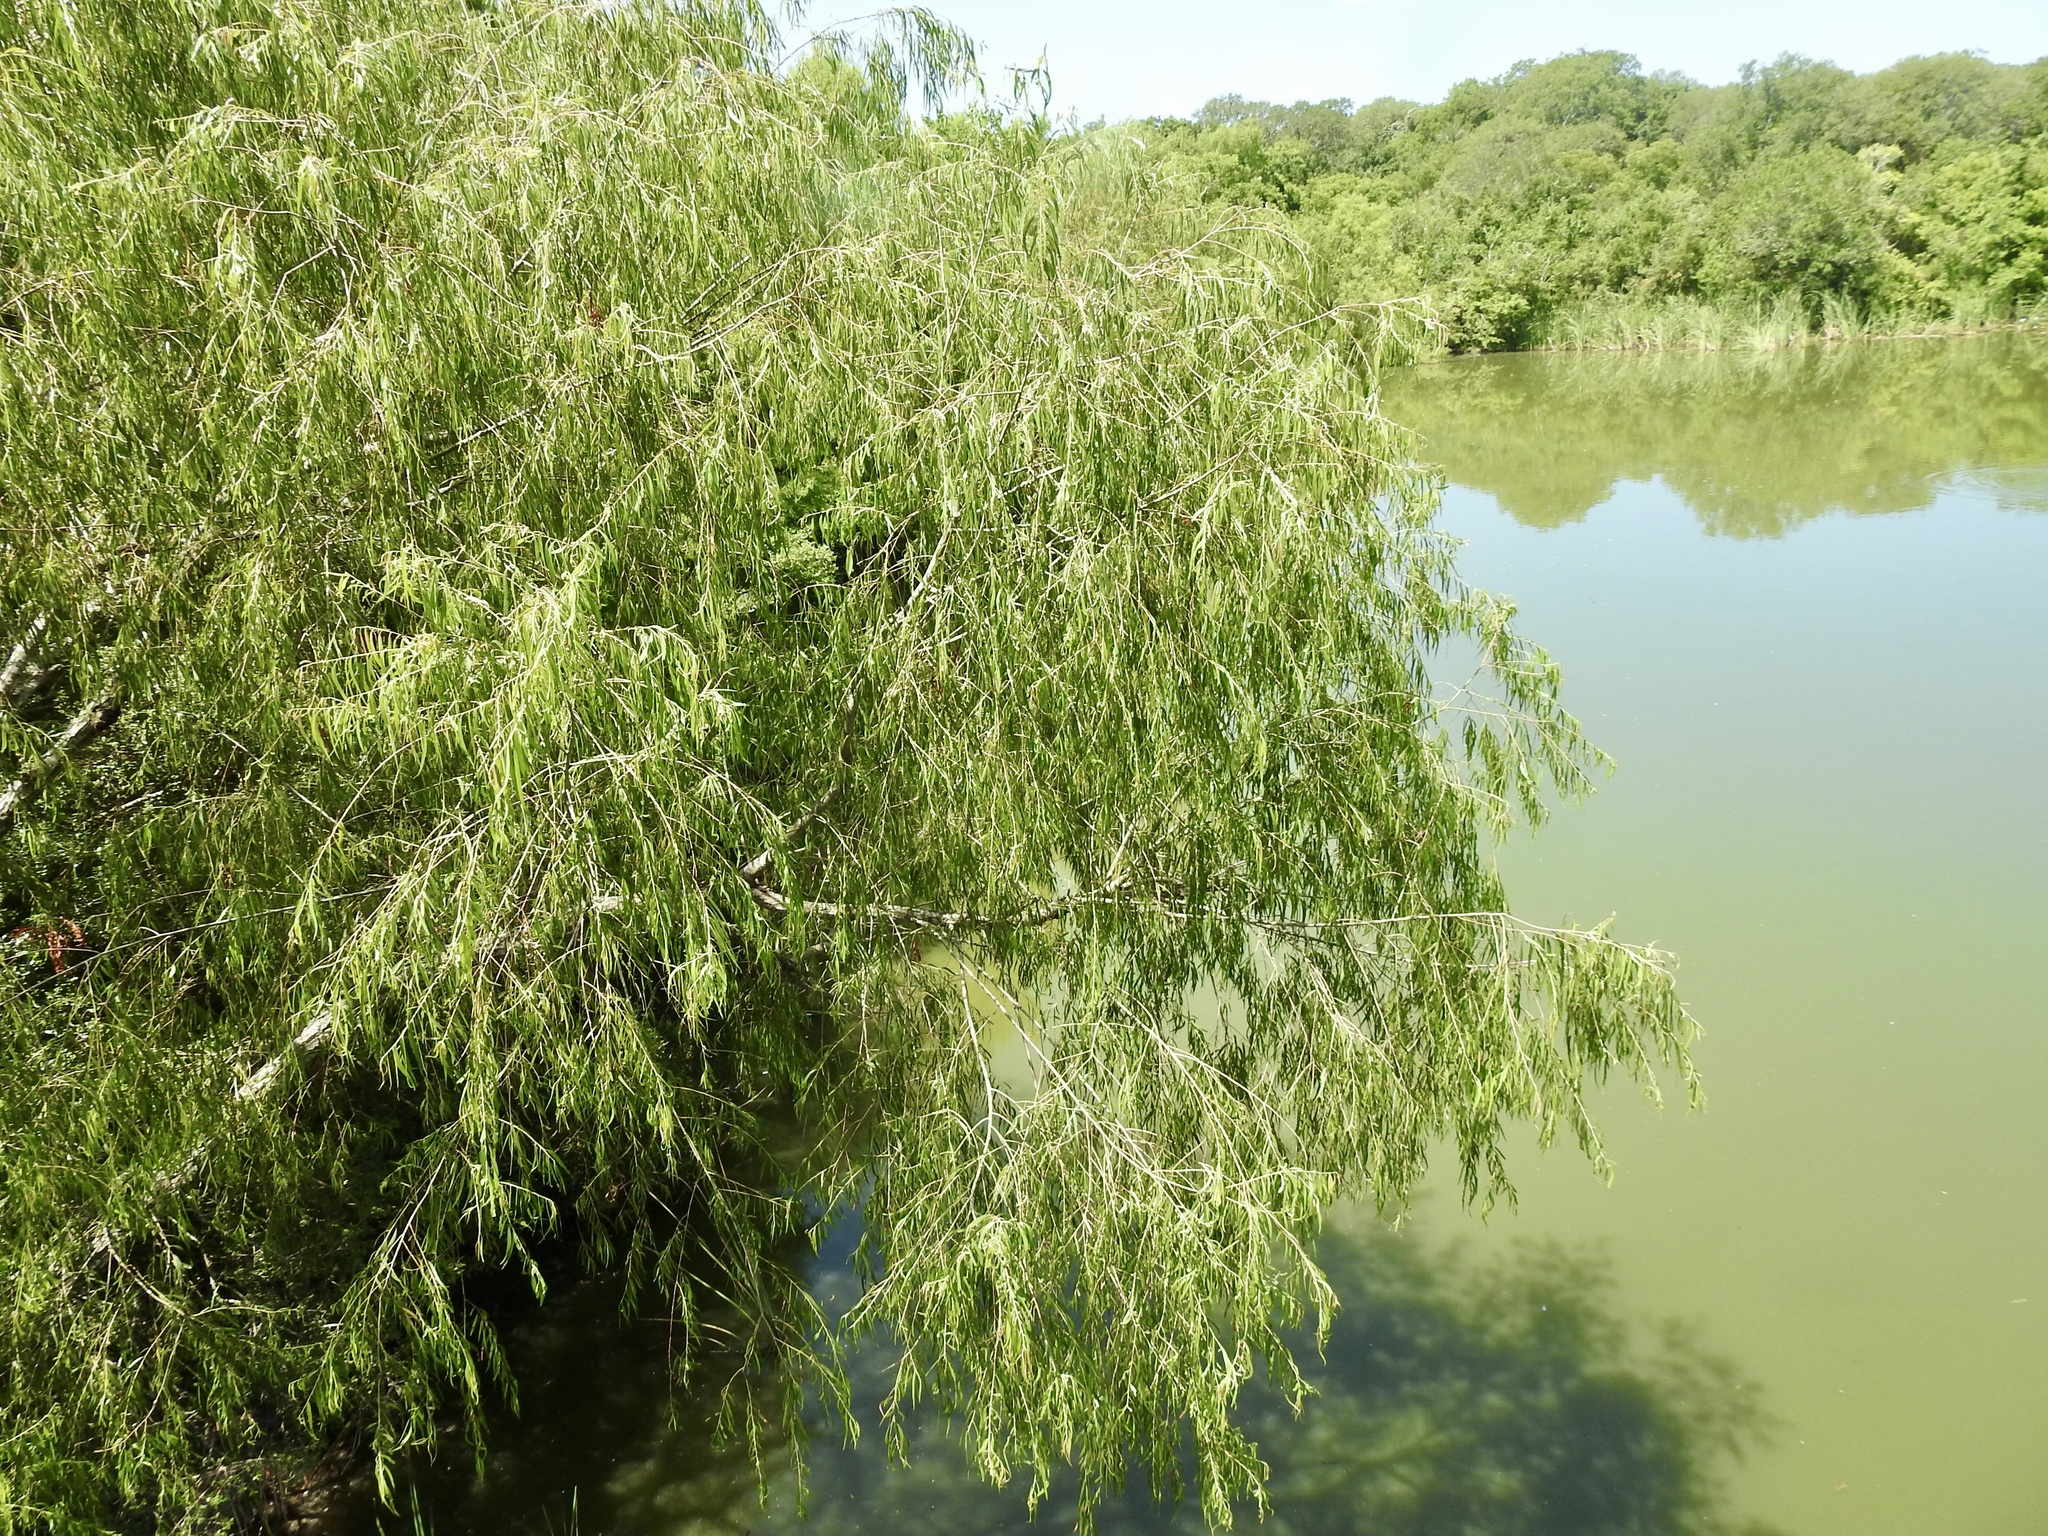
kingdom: Plantae
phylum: Tracheophyta
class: Magnoliopsida
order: Malpighiales
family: Salicaceae
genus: Salix
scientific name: Salix nigra
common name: Black willow
